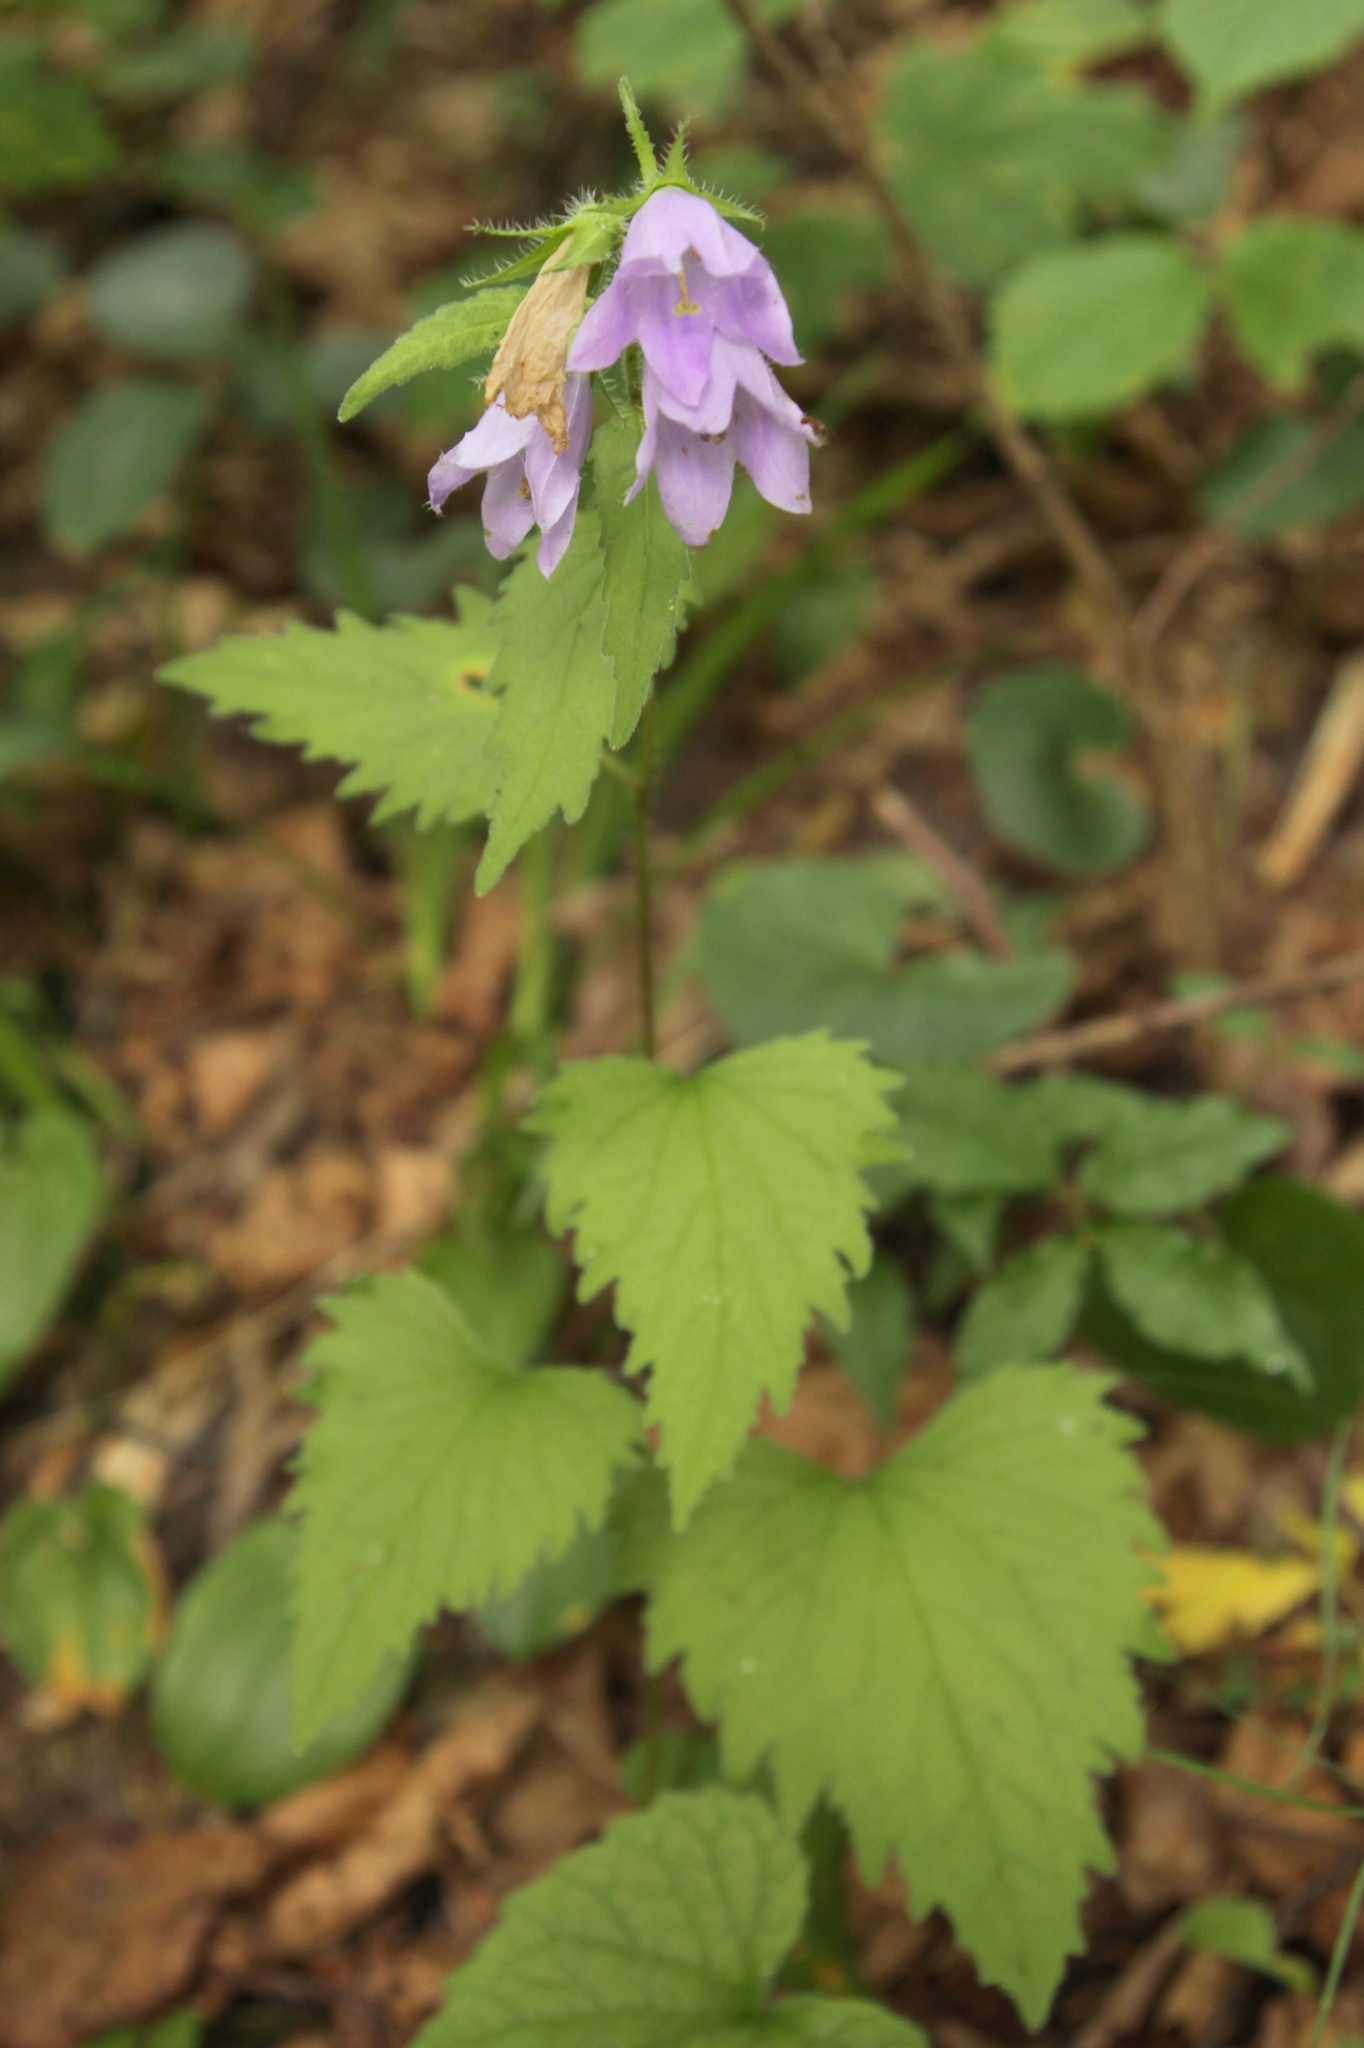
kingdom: Plantae
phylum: Tracheophyta
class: Magnoliopsida
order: Asterales
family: Campanulaceae
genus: Campanula
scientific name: Campanula trachelium
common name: Nettle-leaved bellflower
